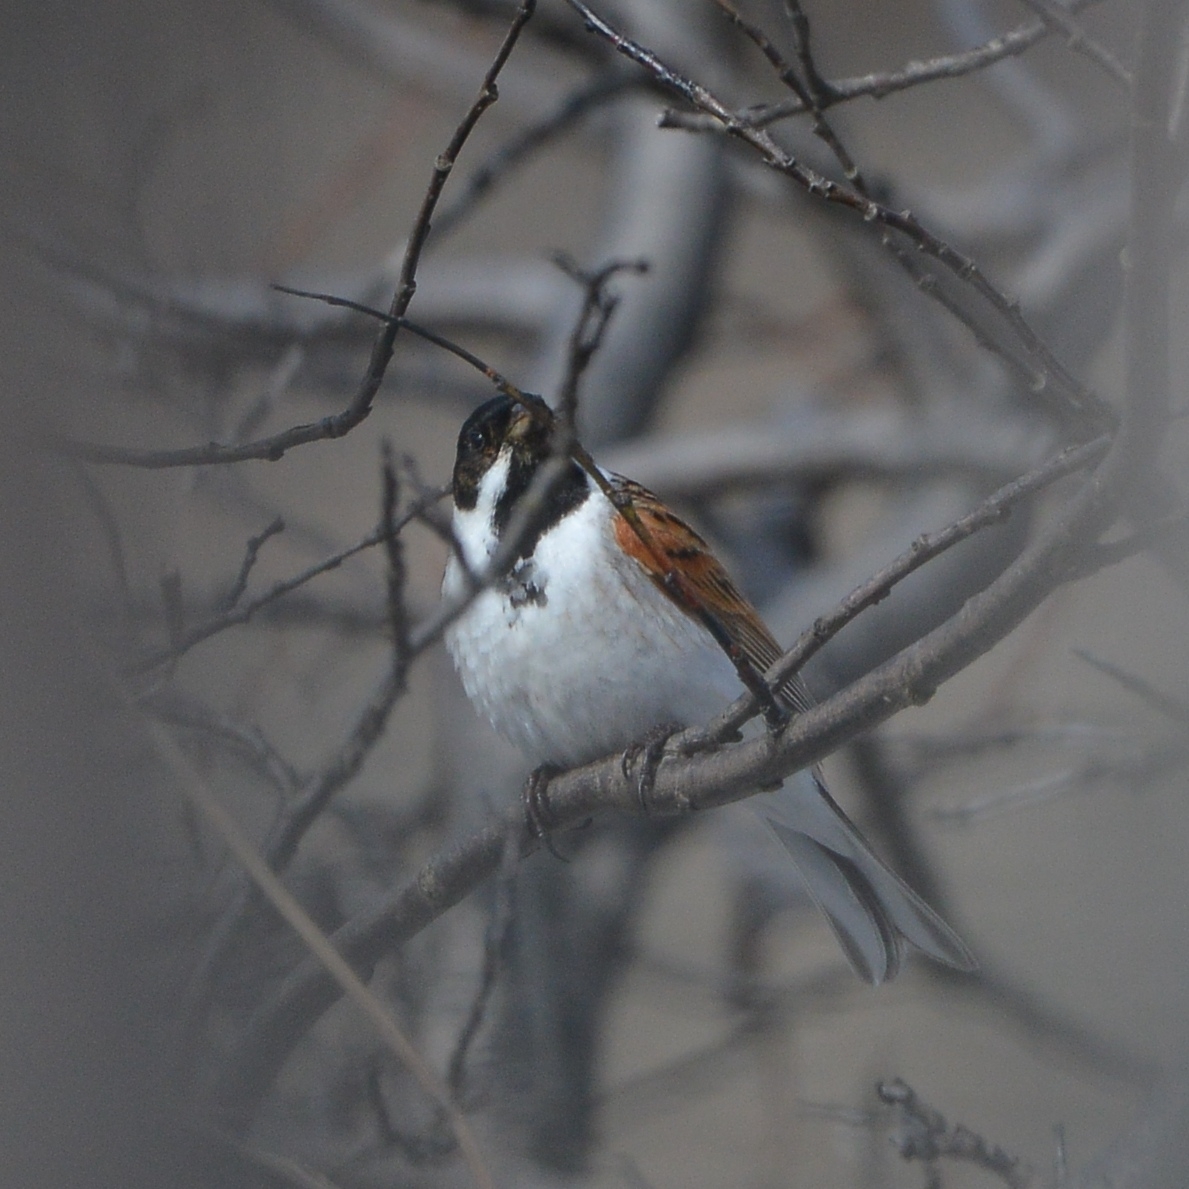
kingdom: Animalia
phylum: Chordata
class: Aves
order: Passeriformes
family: Emberizidae
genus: Emberiza
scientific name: Emberiza schoeniclus
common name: Reed bunting
